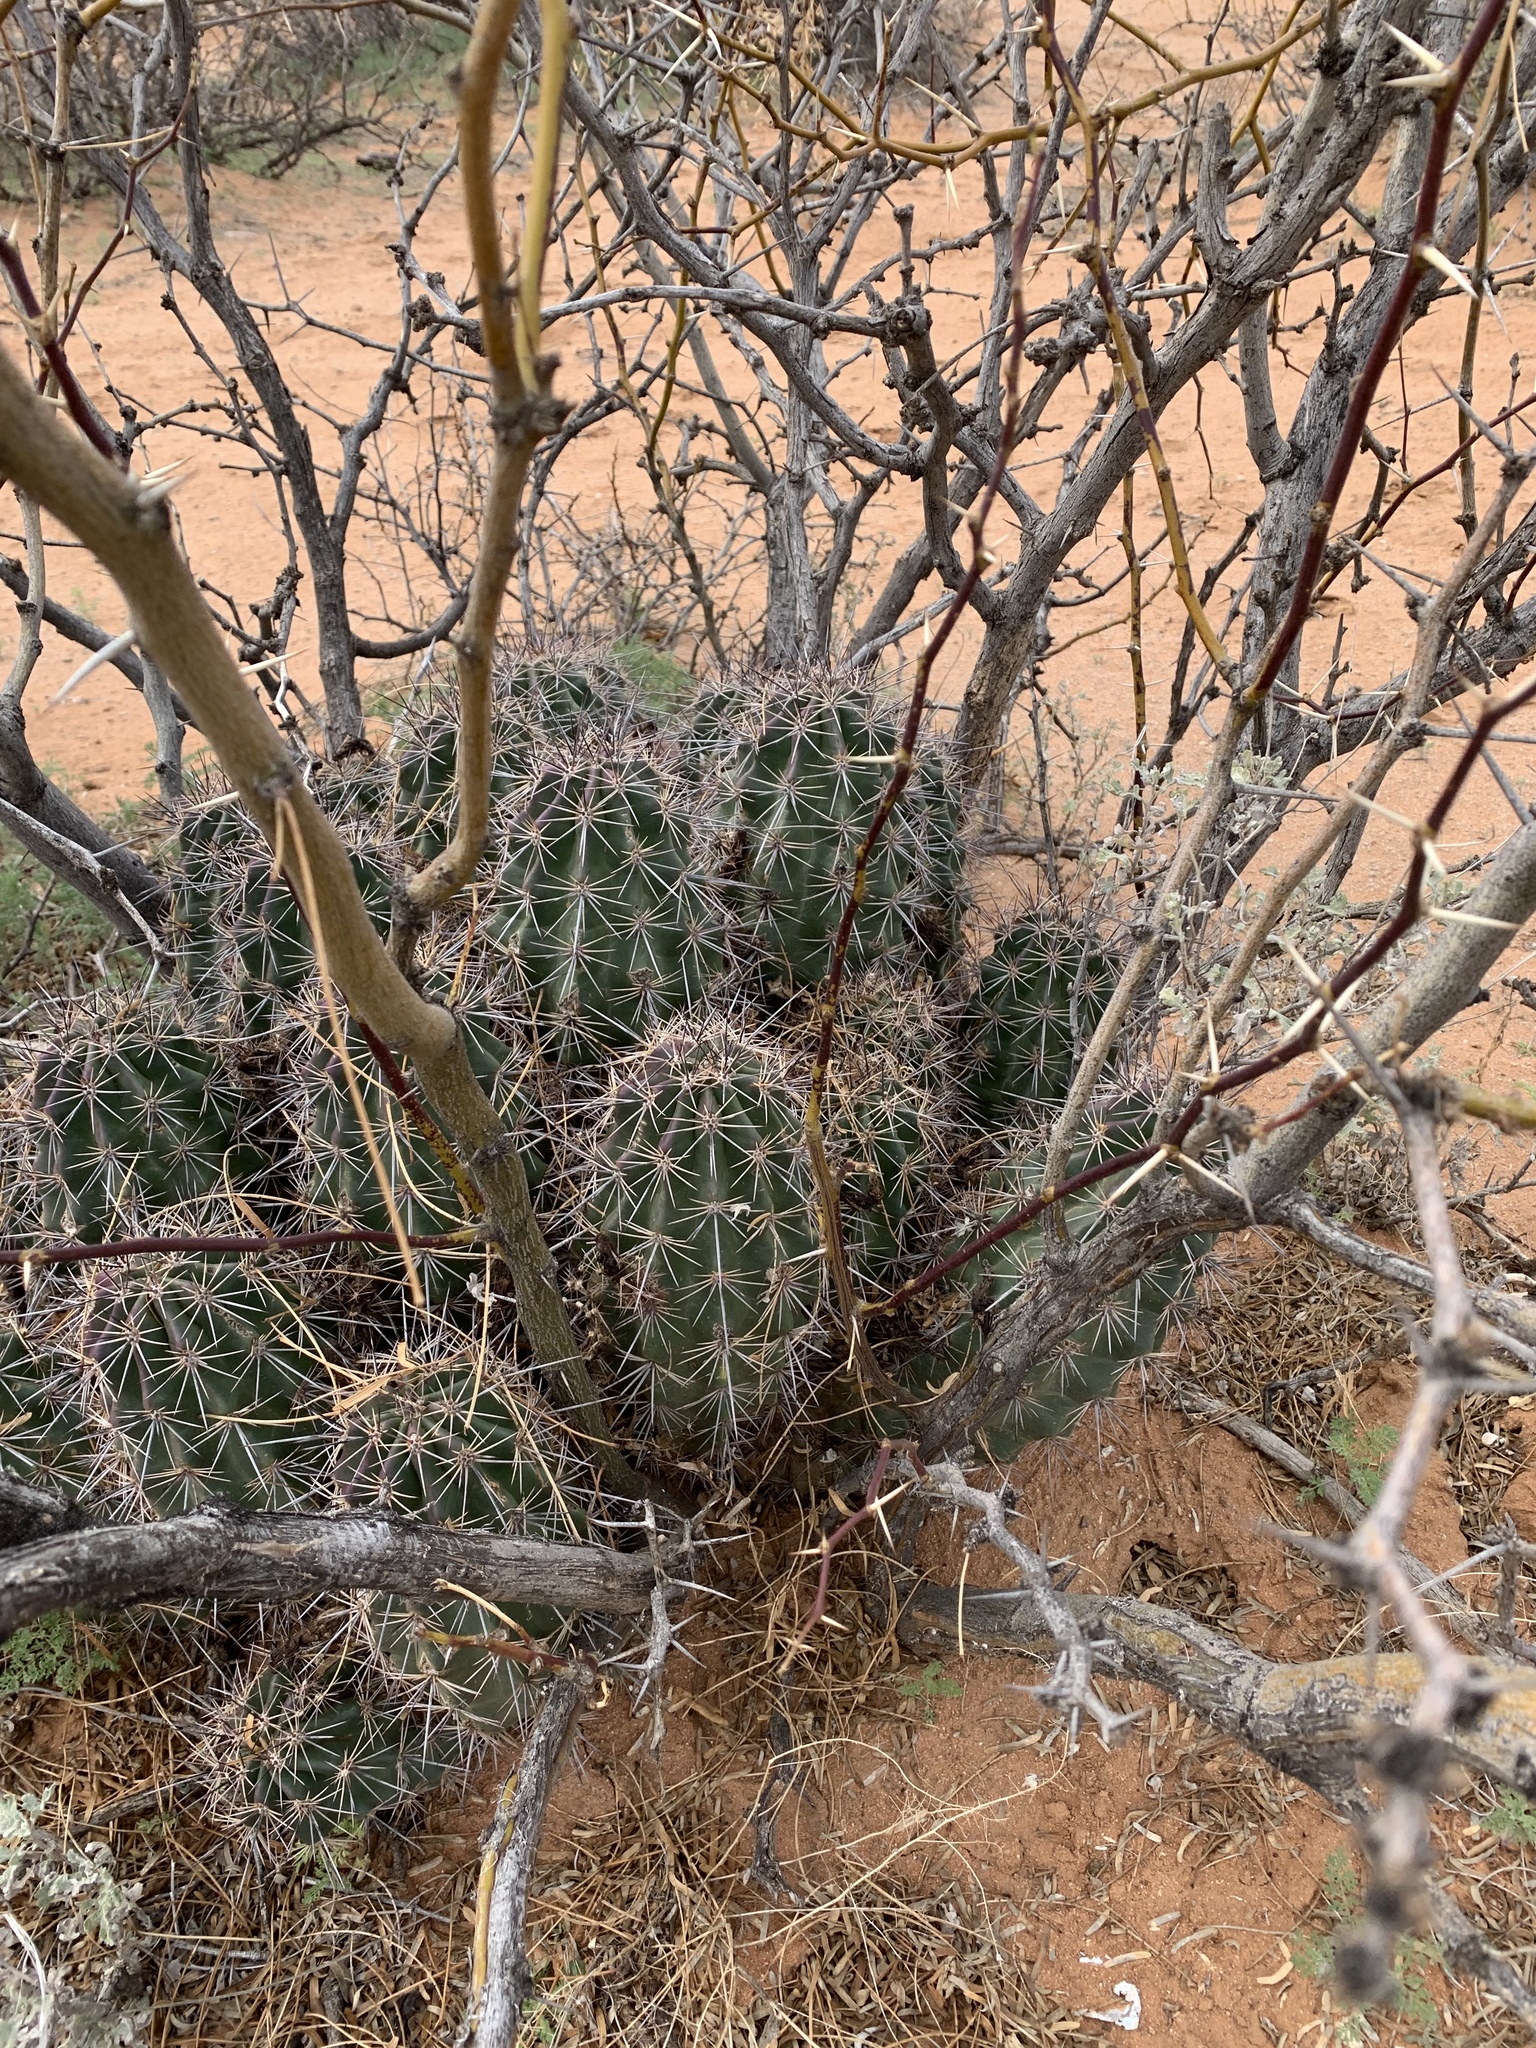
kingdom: Plantae
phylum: Tracheophyta
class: Magnoliopsida
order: Caryophyllales
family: Cactaceae
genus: Echinocereus
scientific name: Echinocereus coccineus
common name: Scarlet hedgehog cactus
